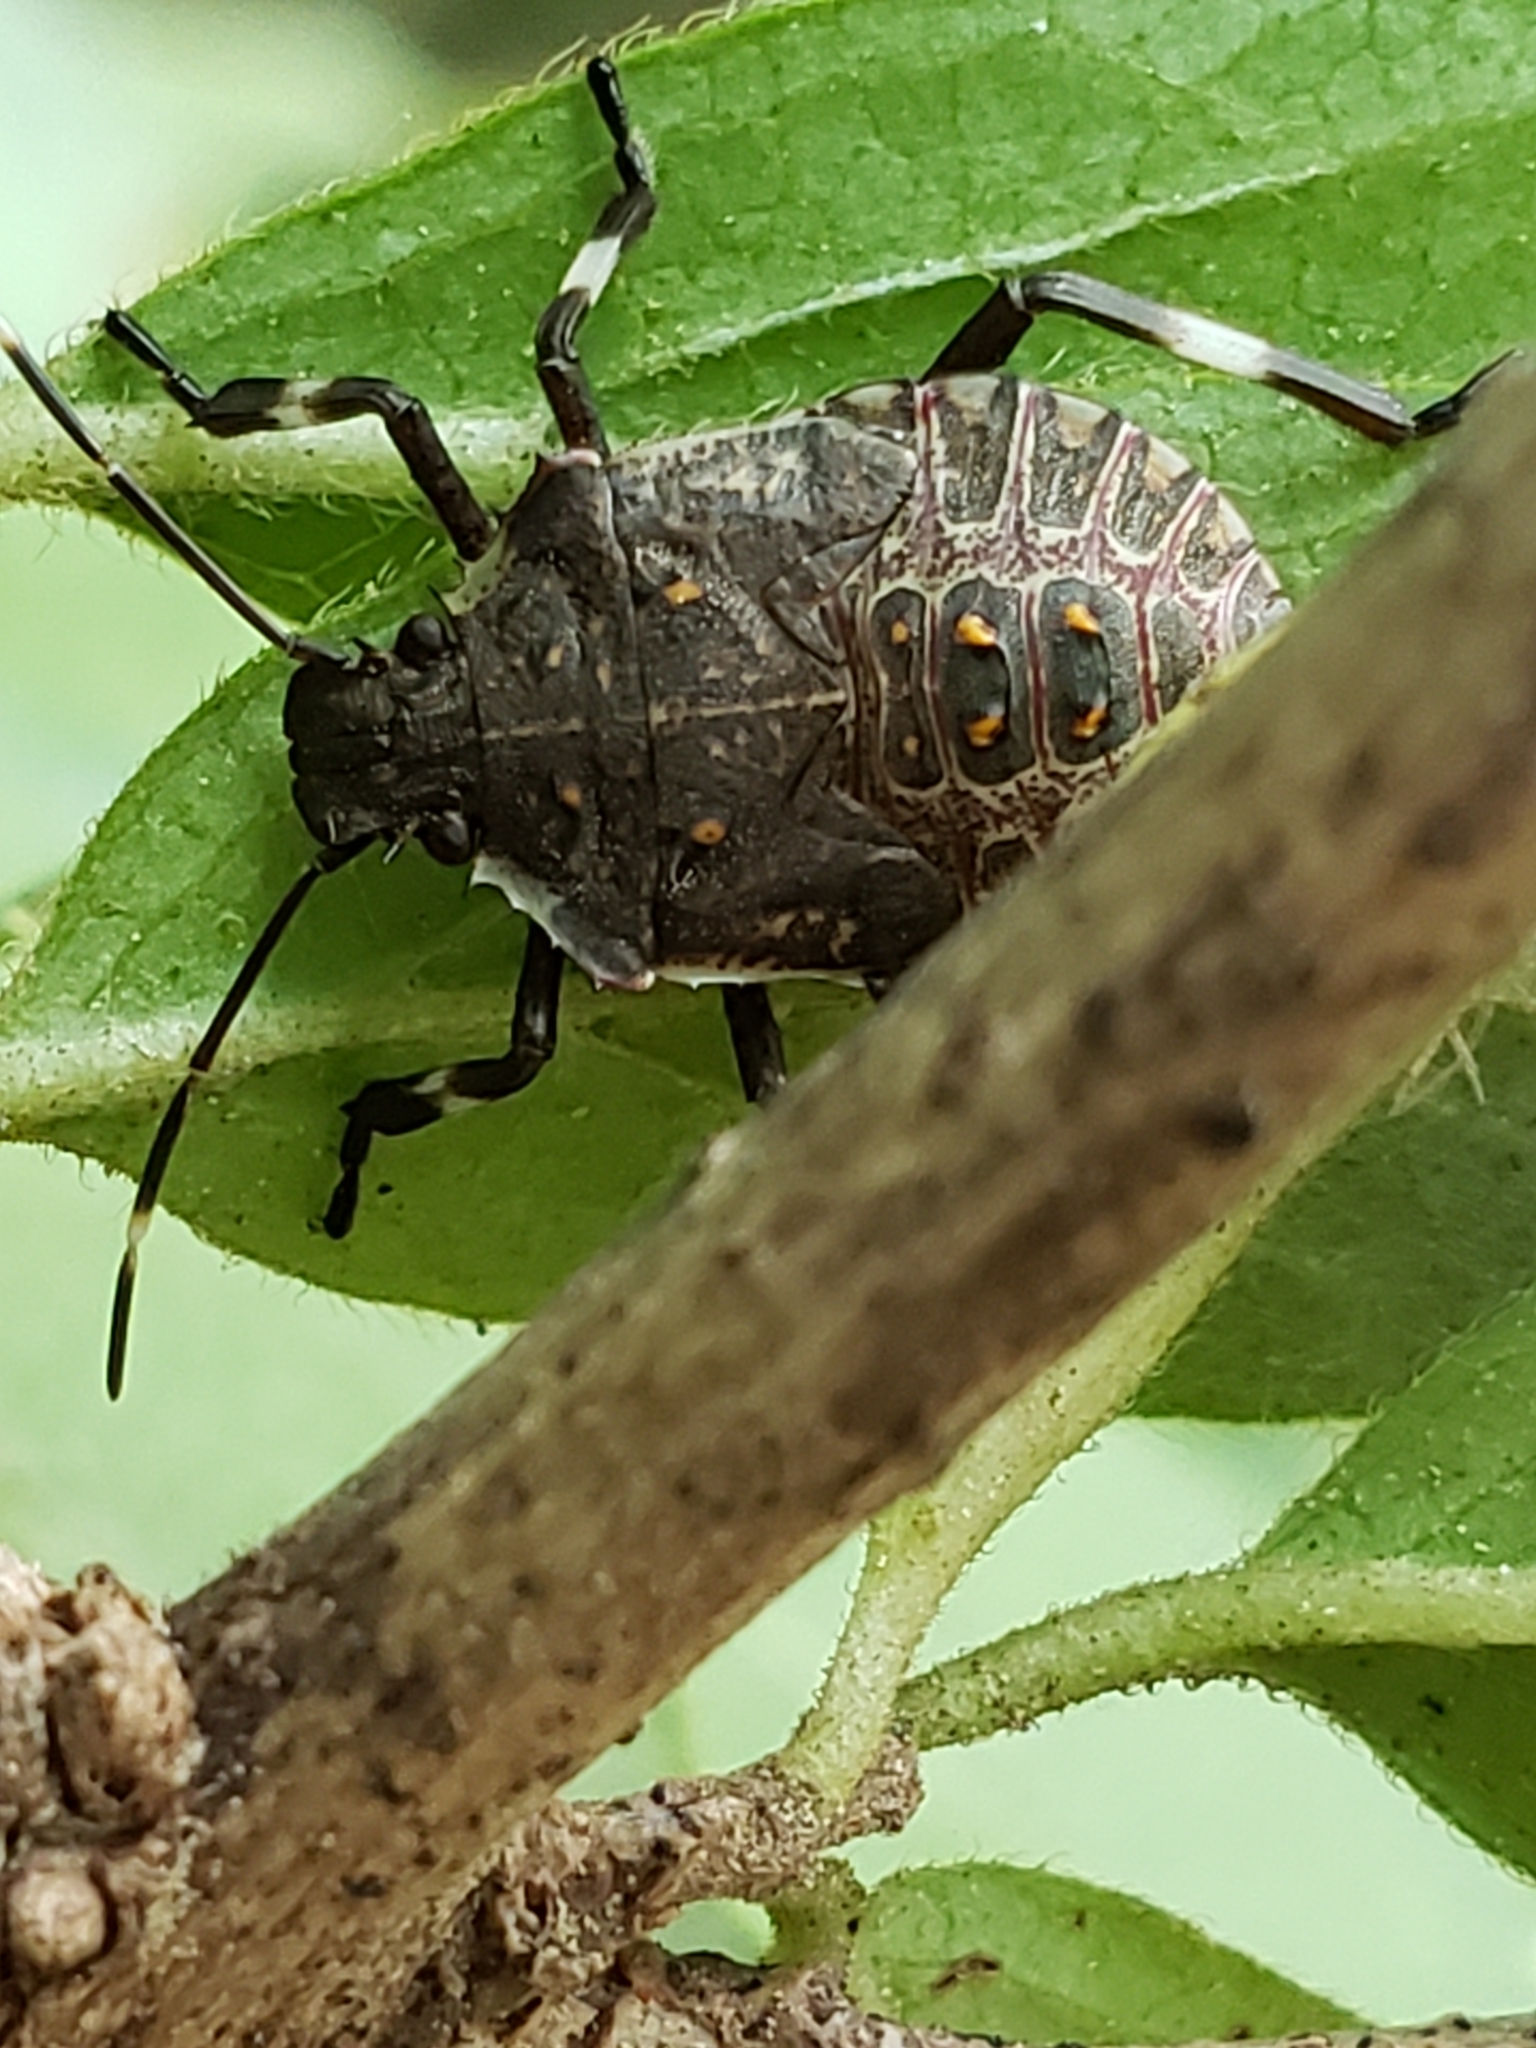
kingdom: Animalia
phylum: Arthropoda
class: Insecta
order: Hemiptera
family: Pentatomidae
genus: Halyomorpha
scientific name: Halyomorpha halys
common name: Brown marmorated stink bug
